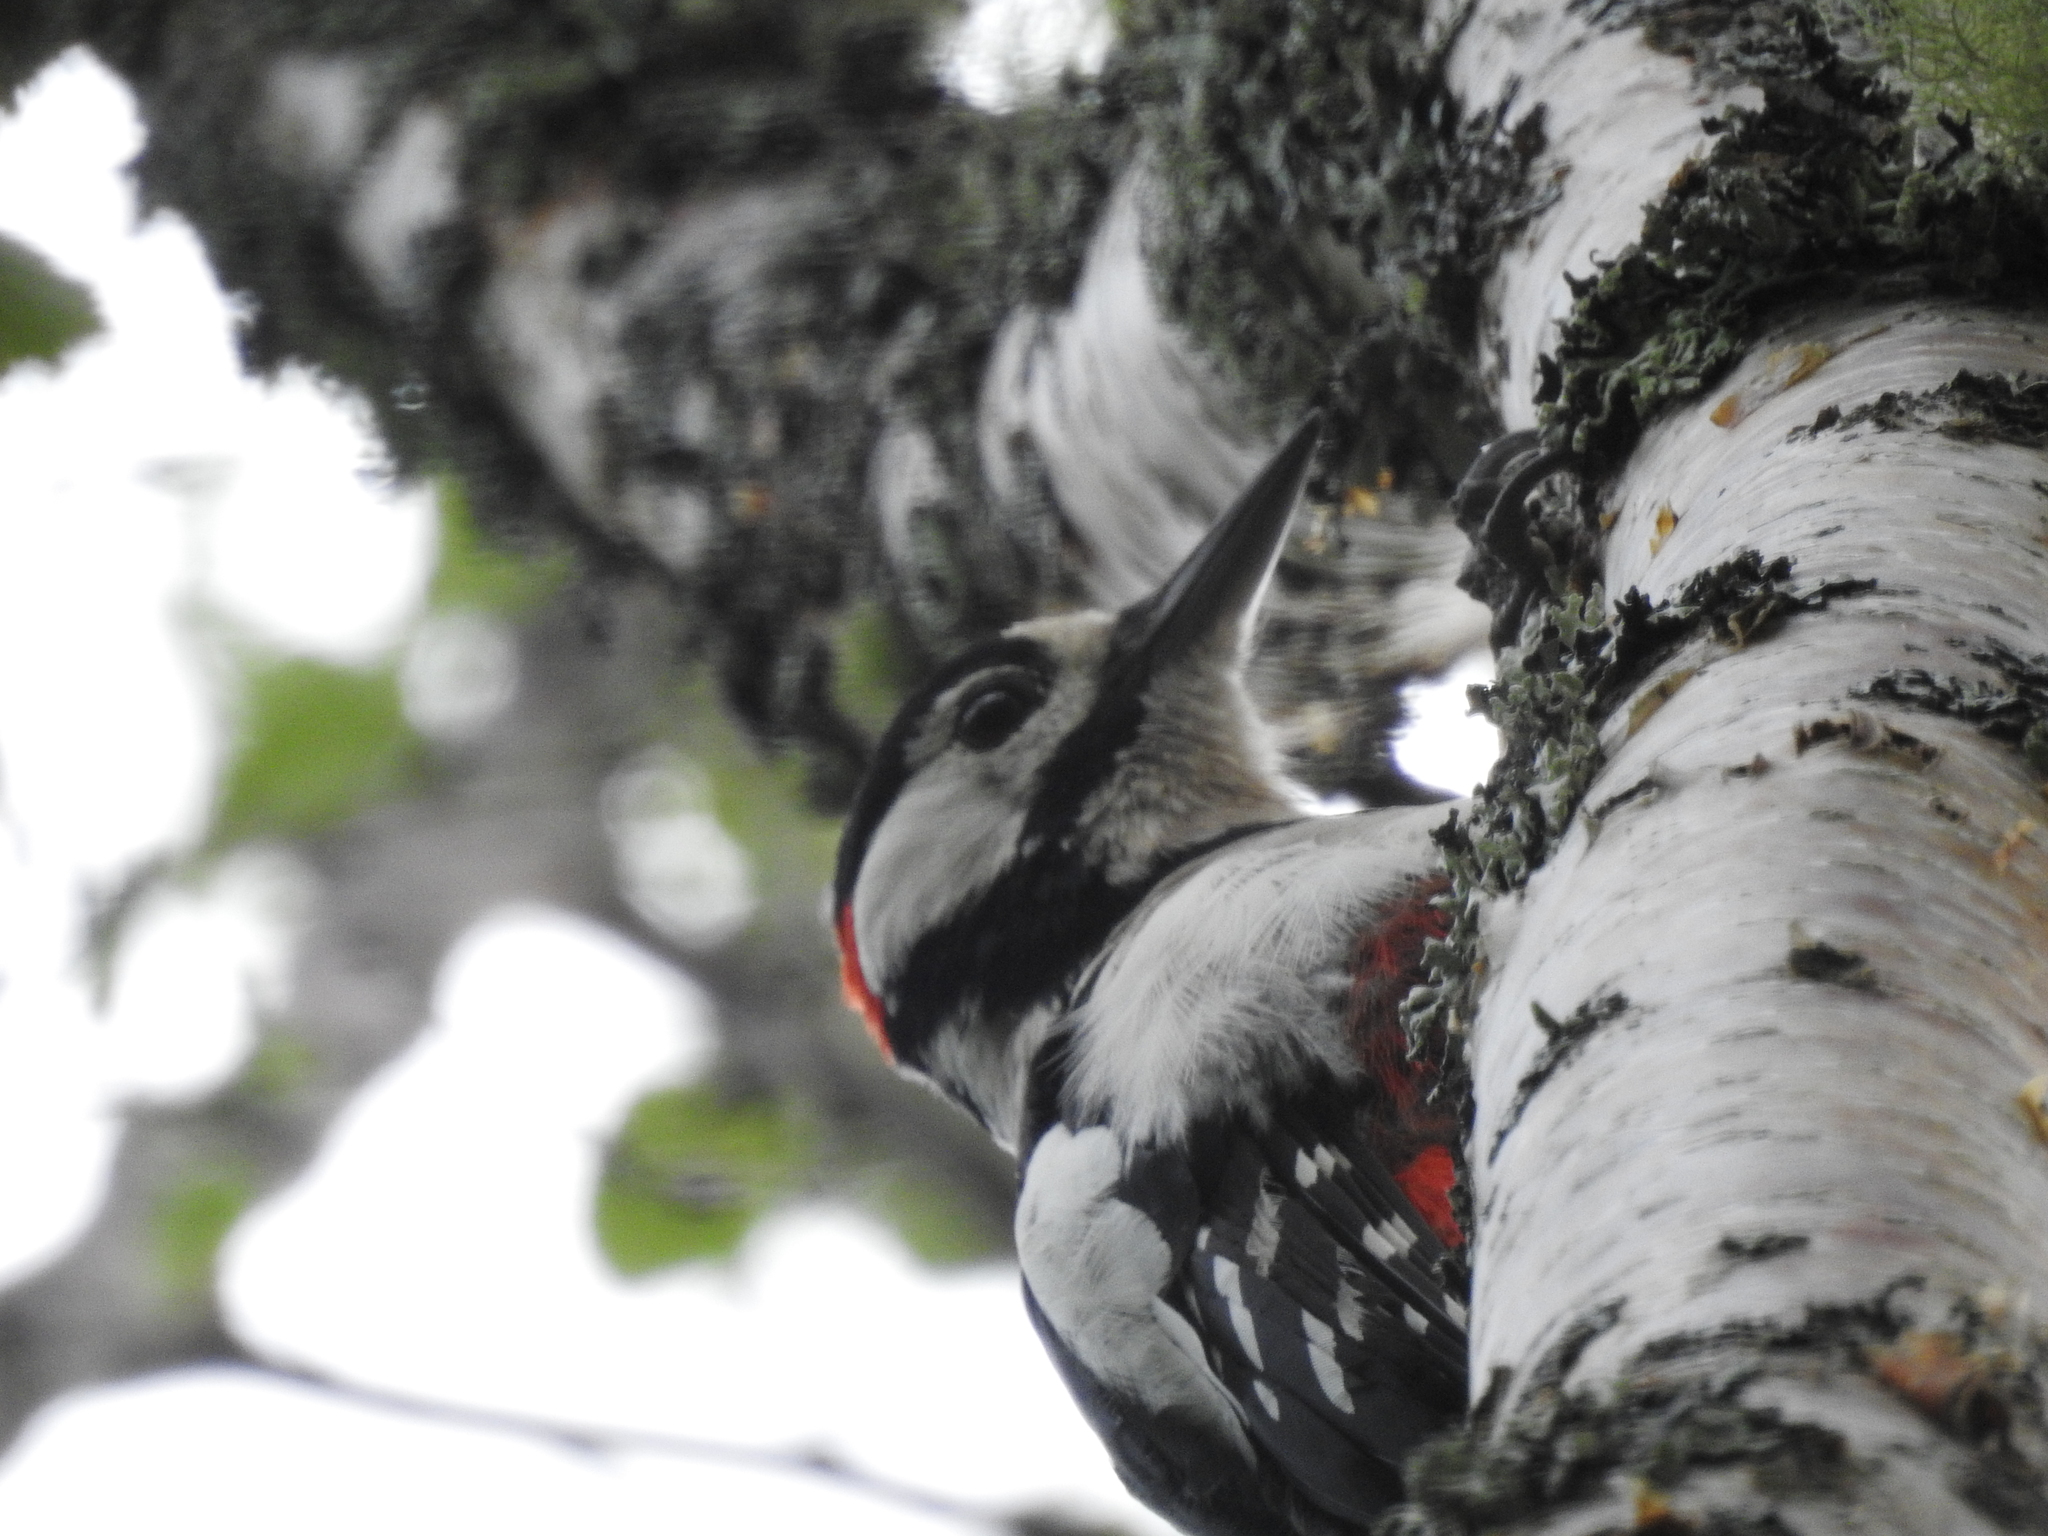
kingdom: Animalia
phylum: Chordata
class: Aves
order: Piciformes
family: Picidae
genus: Dendrocopos
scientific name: Dendrocopos major
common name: Great spotted woodpecker
